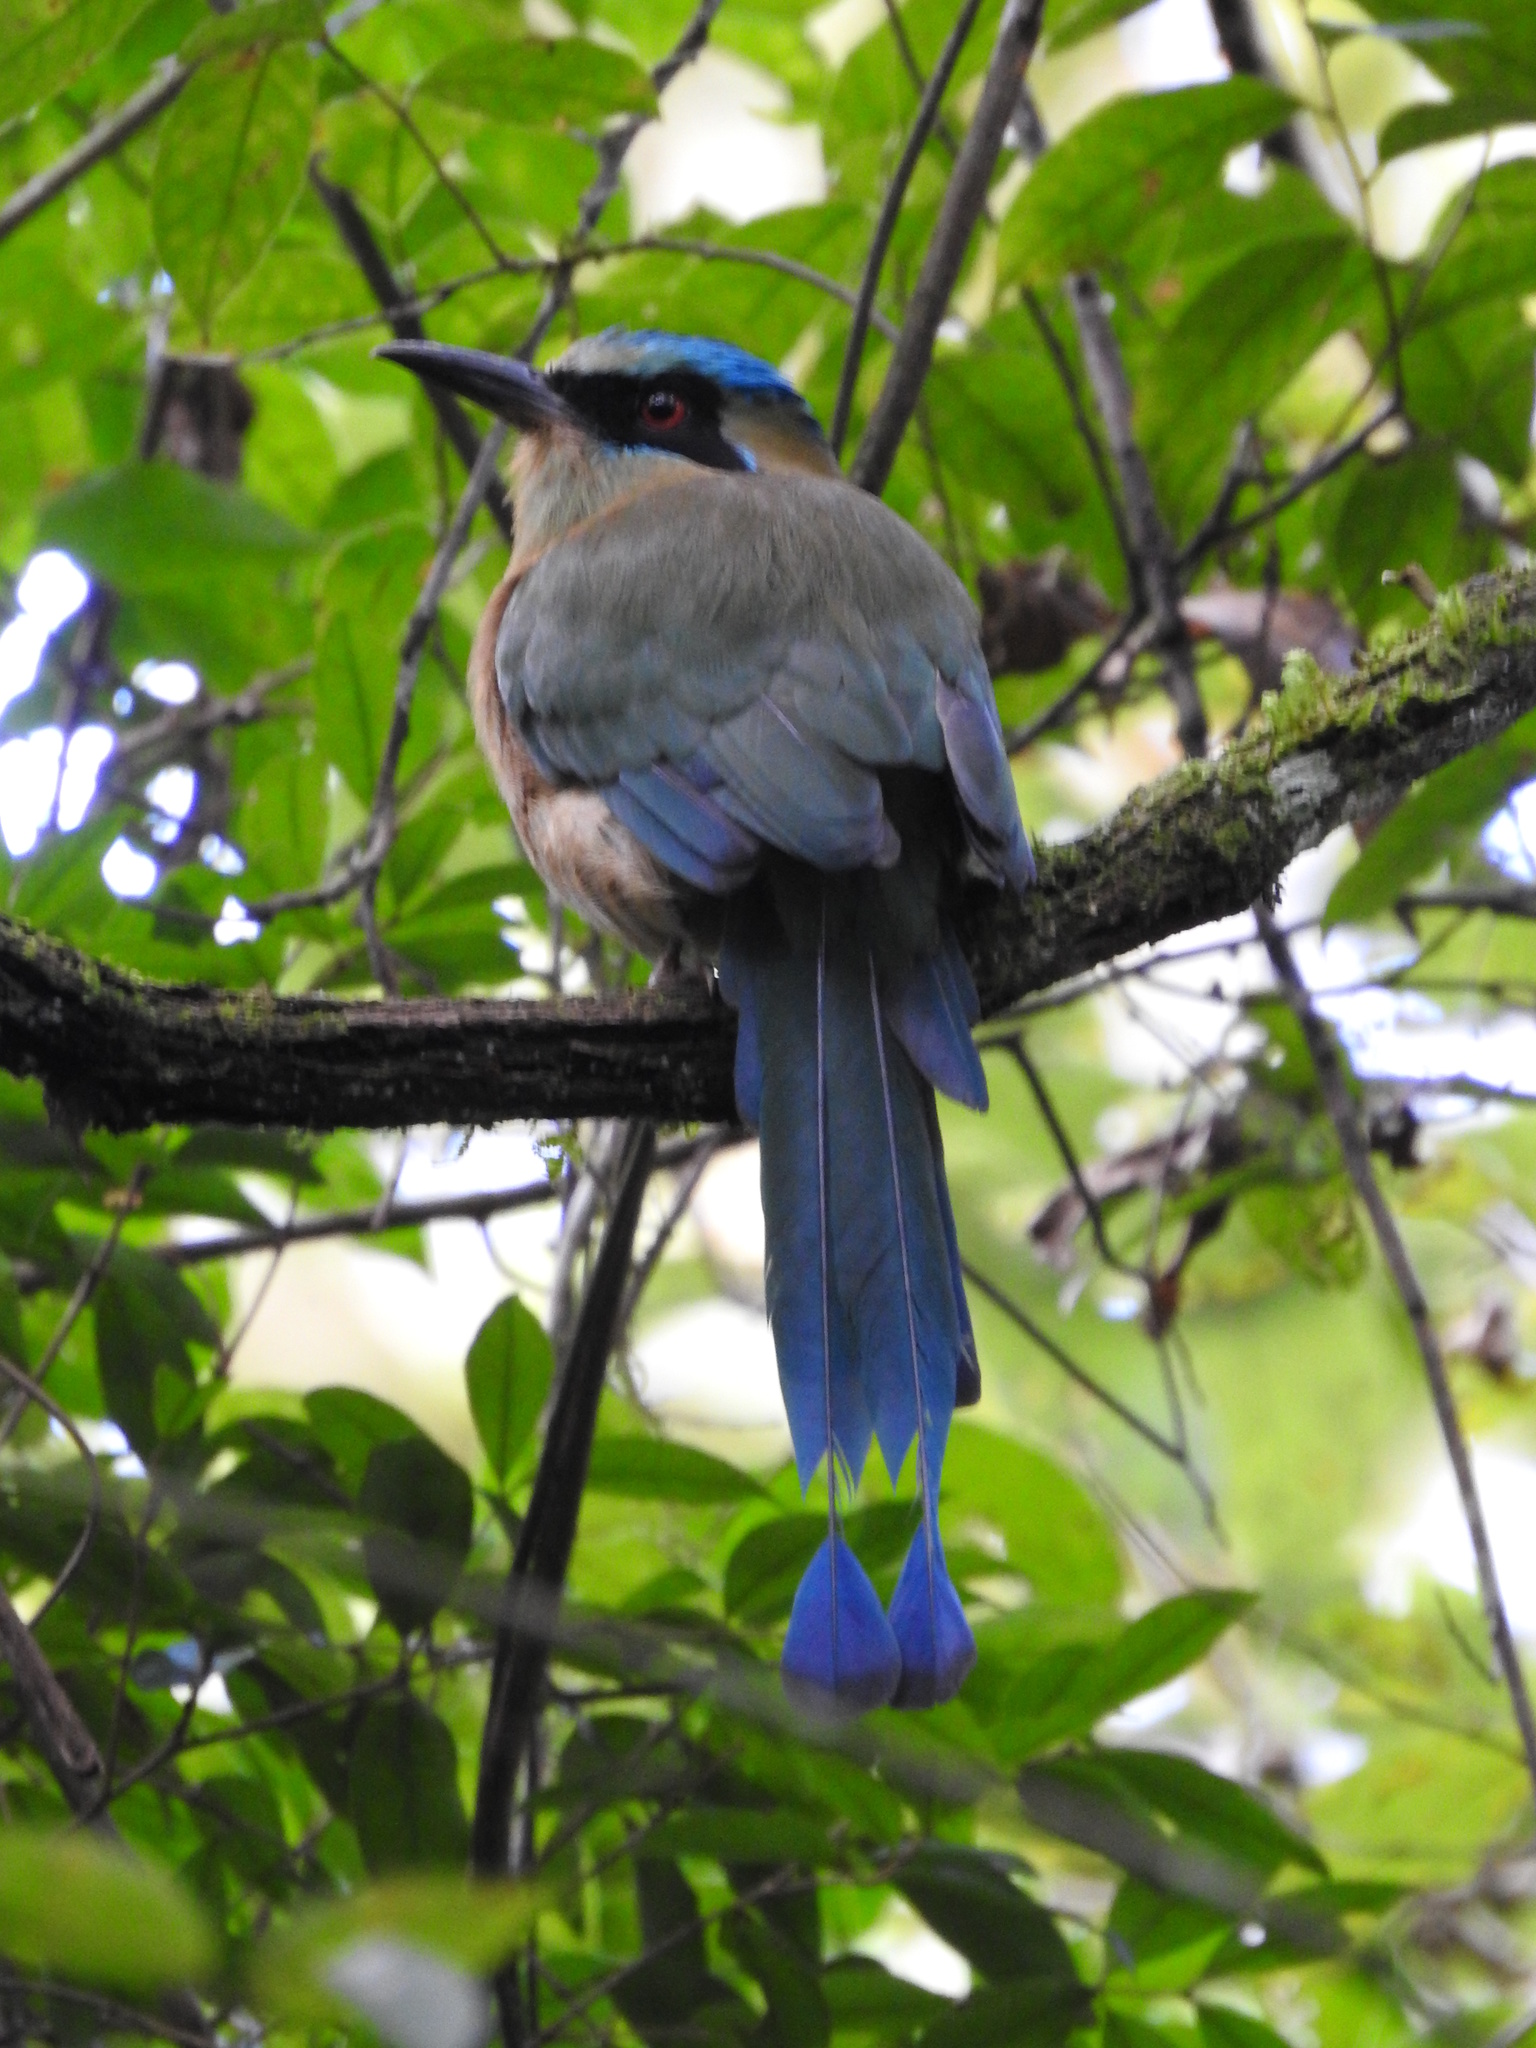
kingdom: Animalia
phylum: Chordata
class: Aves
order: Coraciiformes
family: Momotidae
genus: Momotus
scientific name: Momotus coeruliceps
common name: Blue-capped motmot
